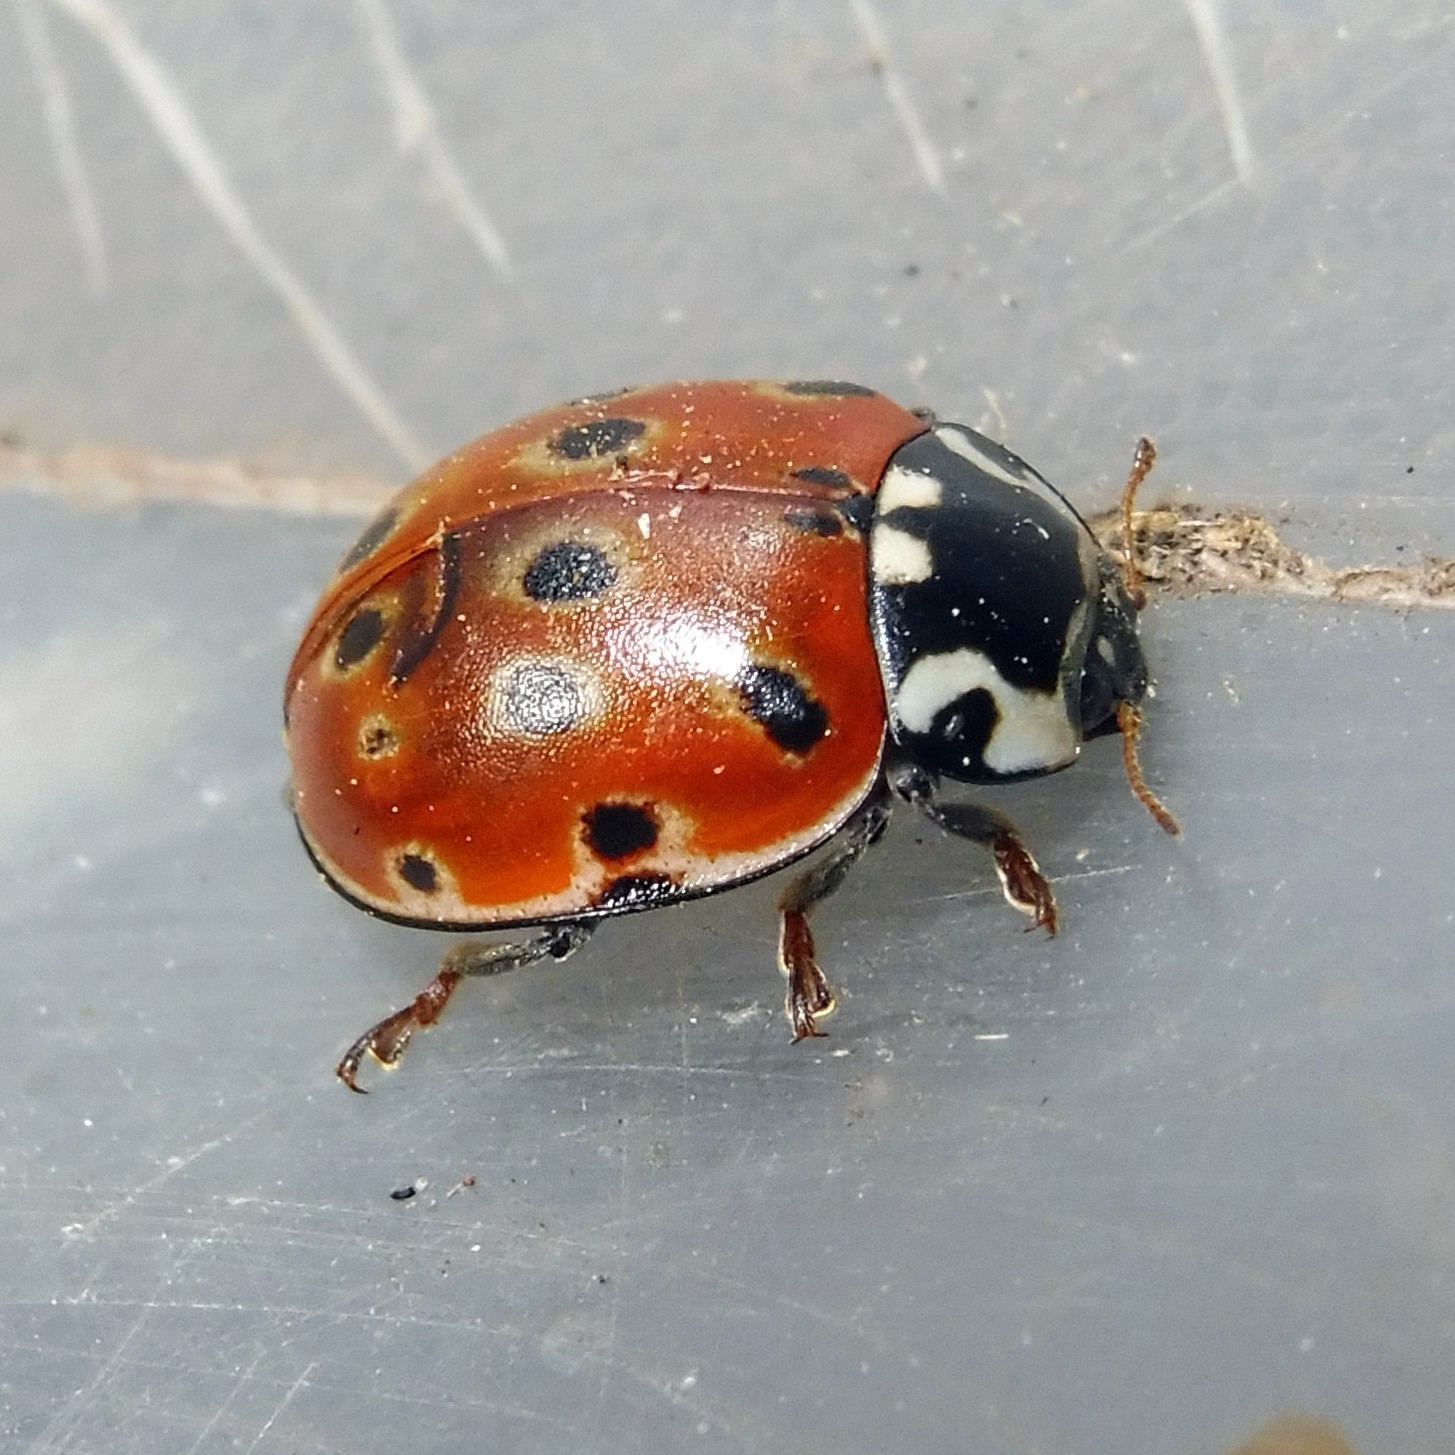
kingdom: Animalia
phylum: Arthropoda
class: Insecta
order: Coleoptera
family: Coccinellidae
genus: Anatis
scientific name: Anatis ocellata
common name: Eyed ladybird
